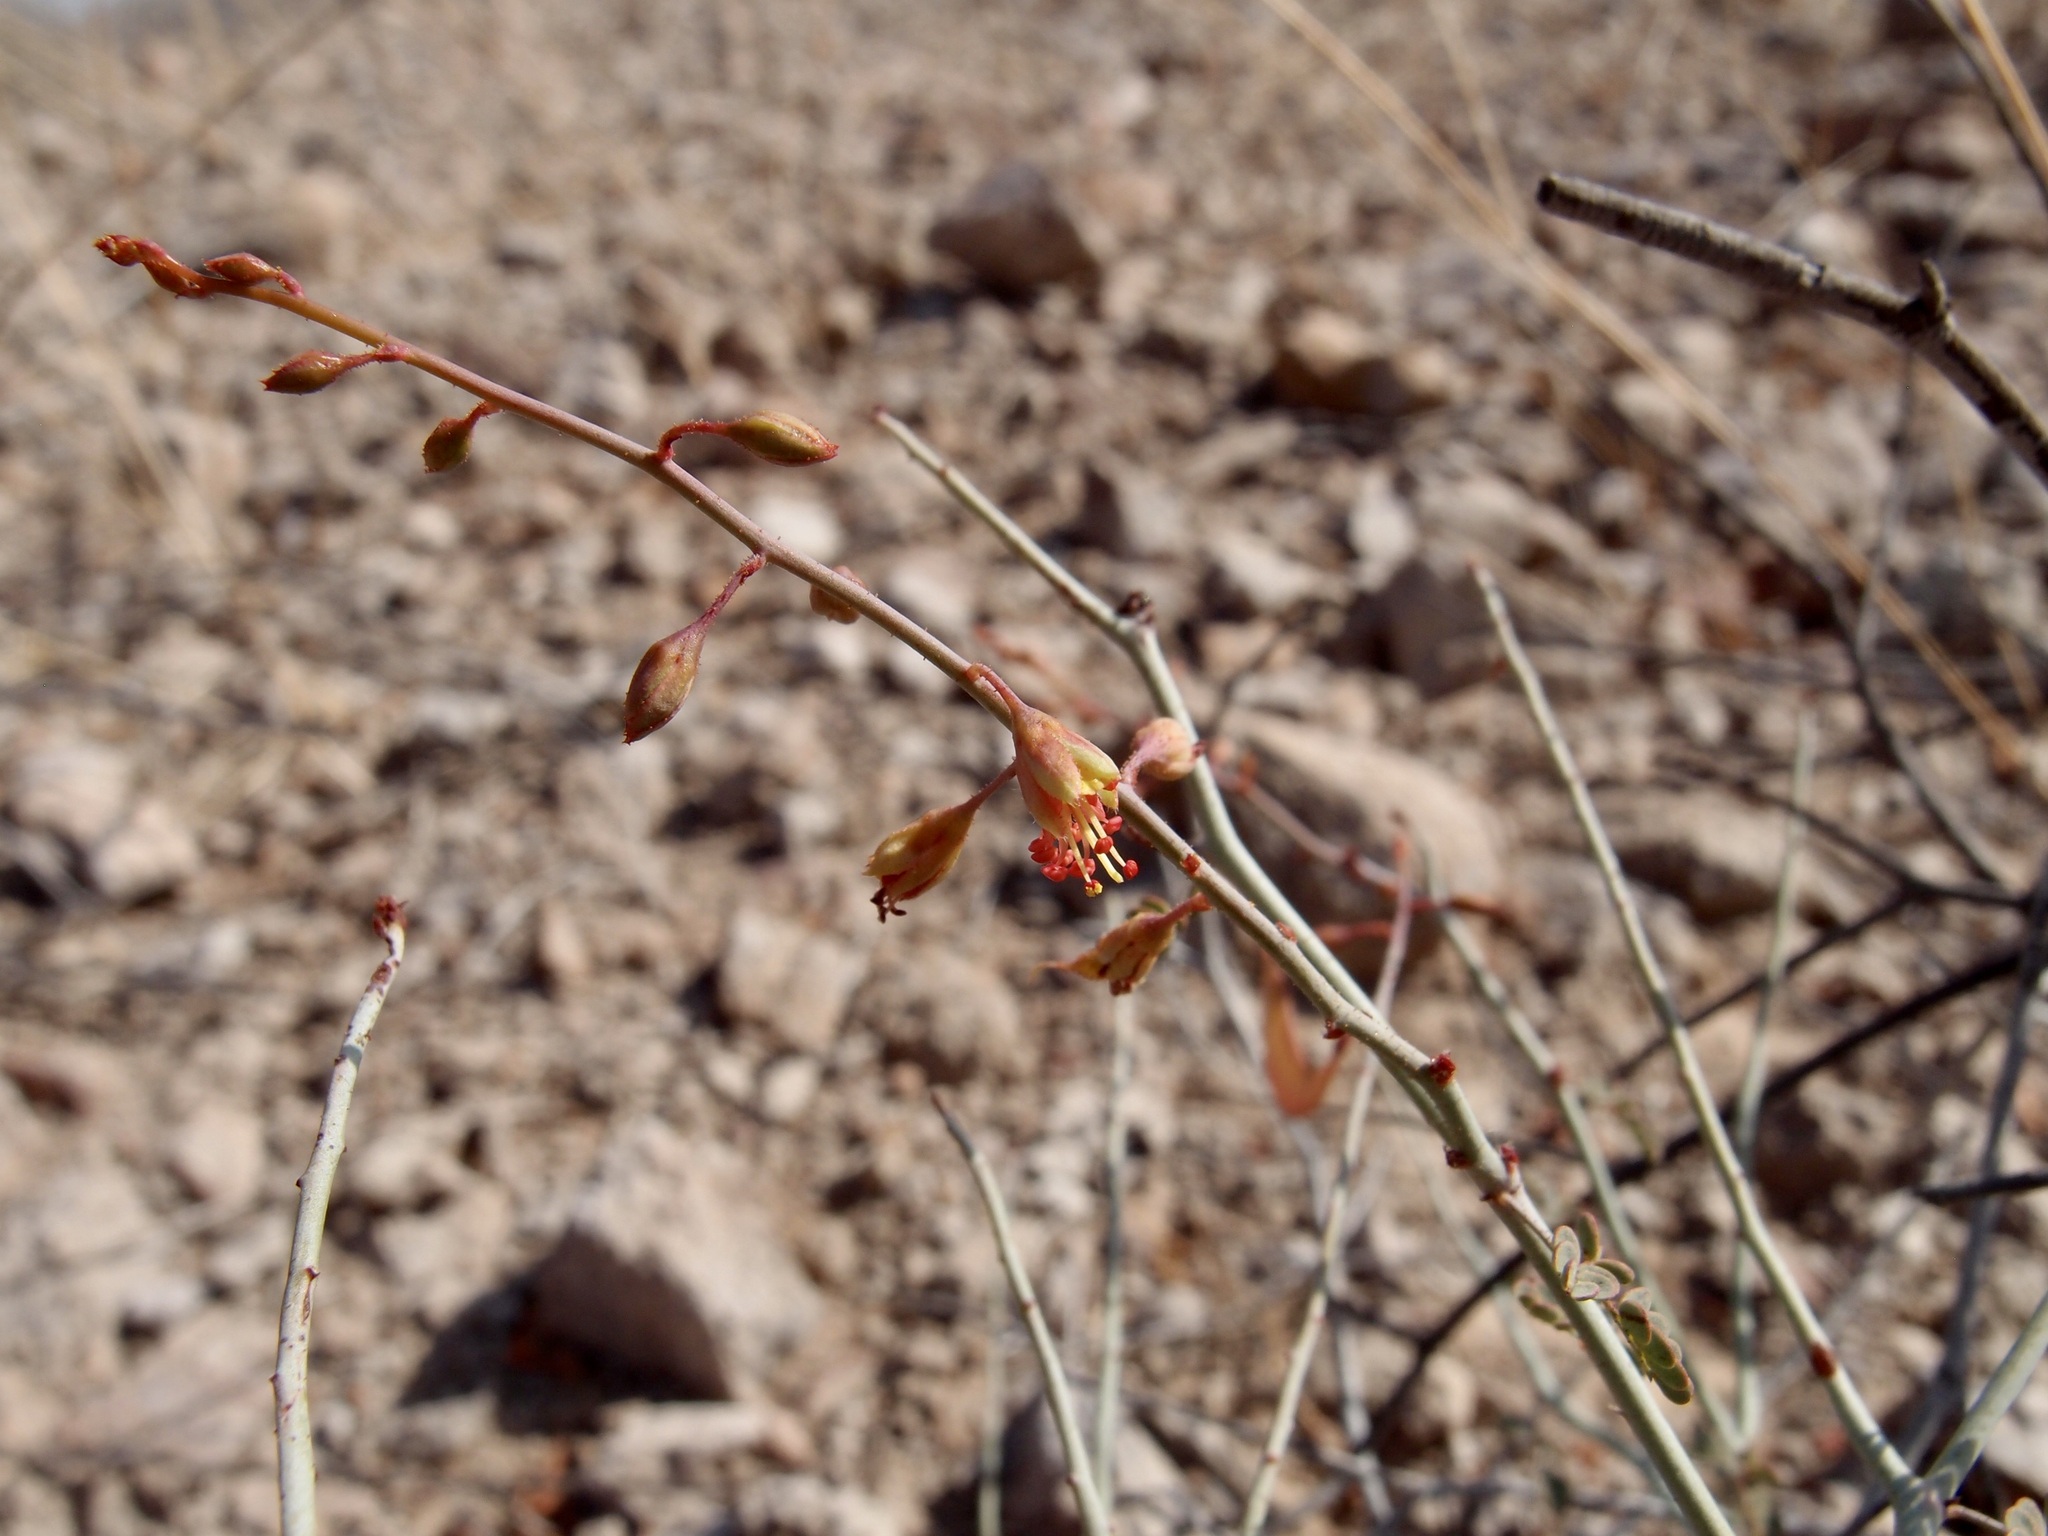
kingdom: Plantae
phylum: Tracheophyta
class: Magnoliopsida
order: Fabales
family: Fabaceae
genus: Hoffmannseggia
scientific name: Hoffmannseggia intricata
